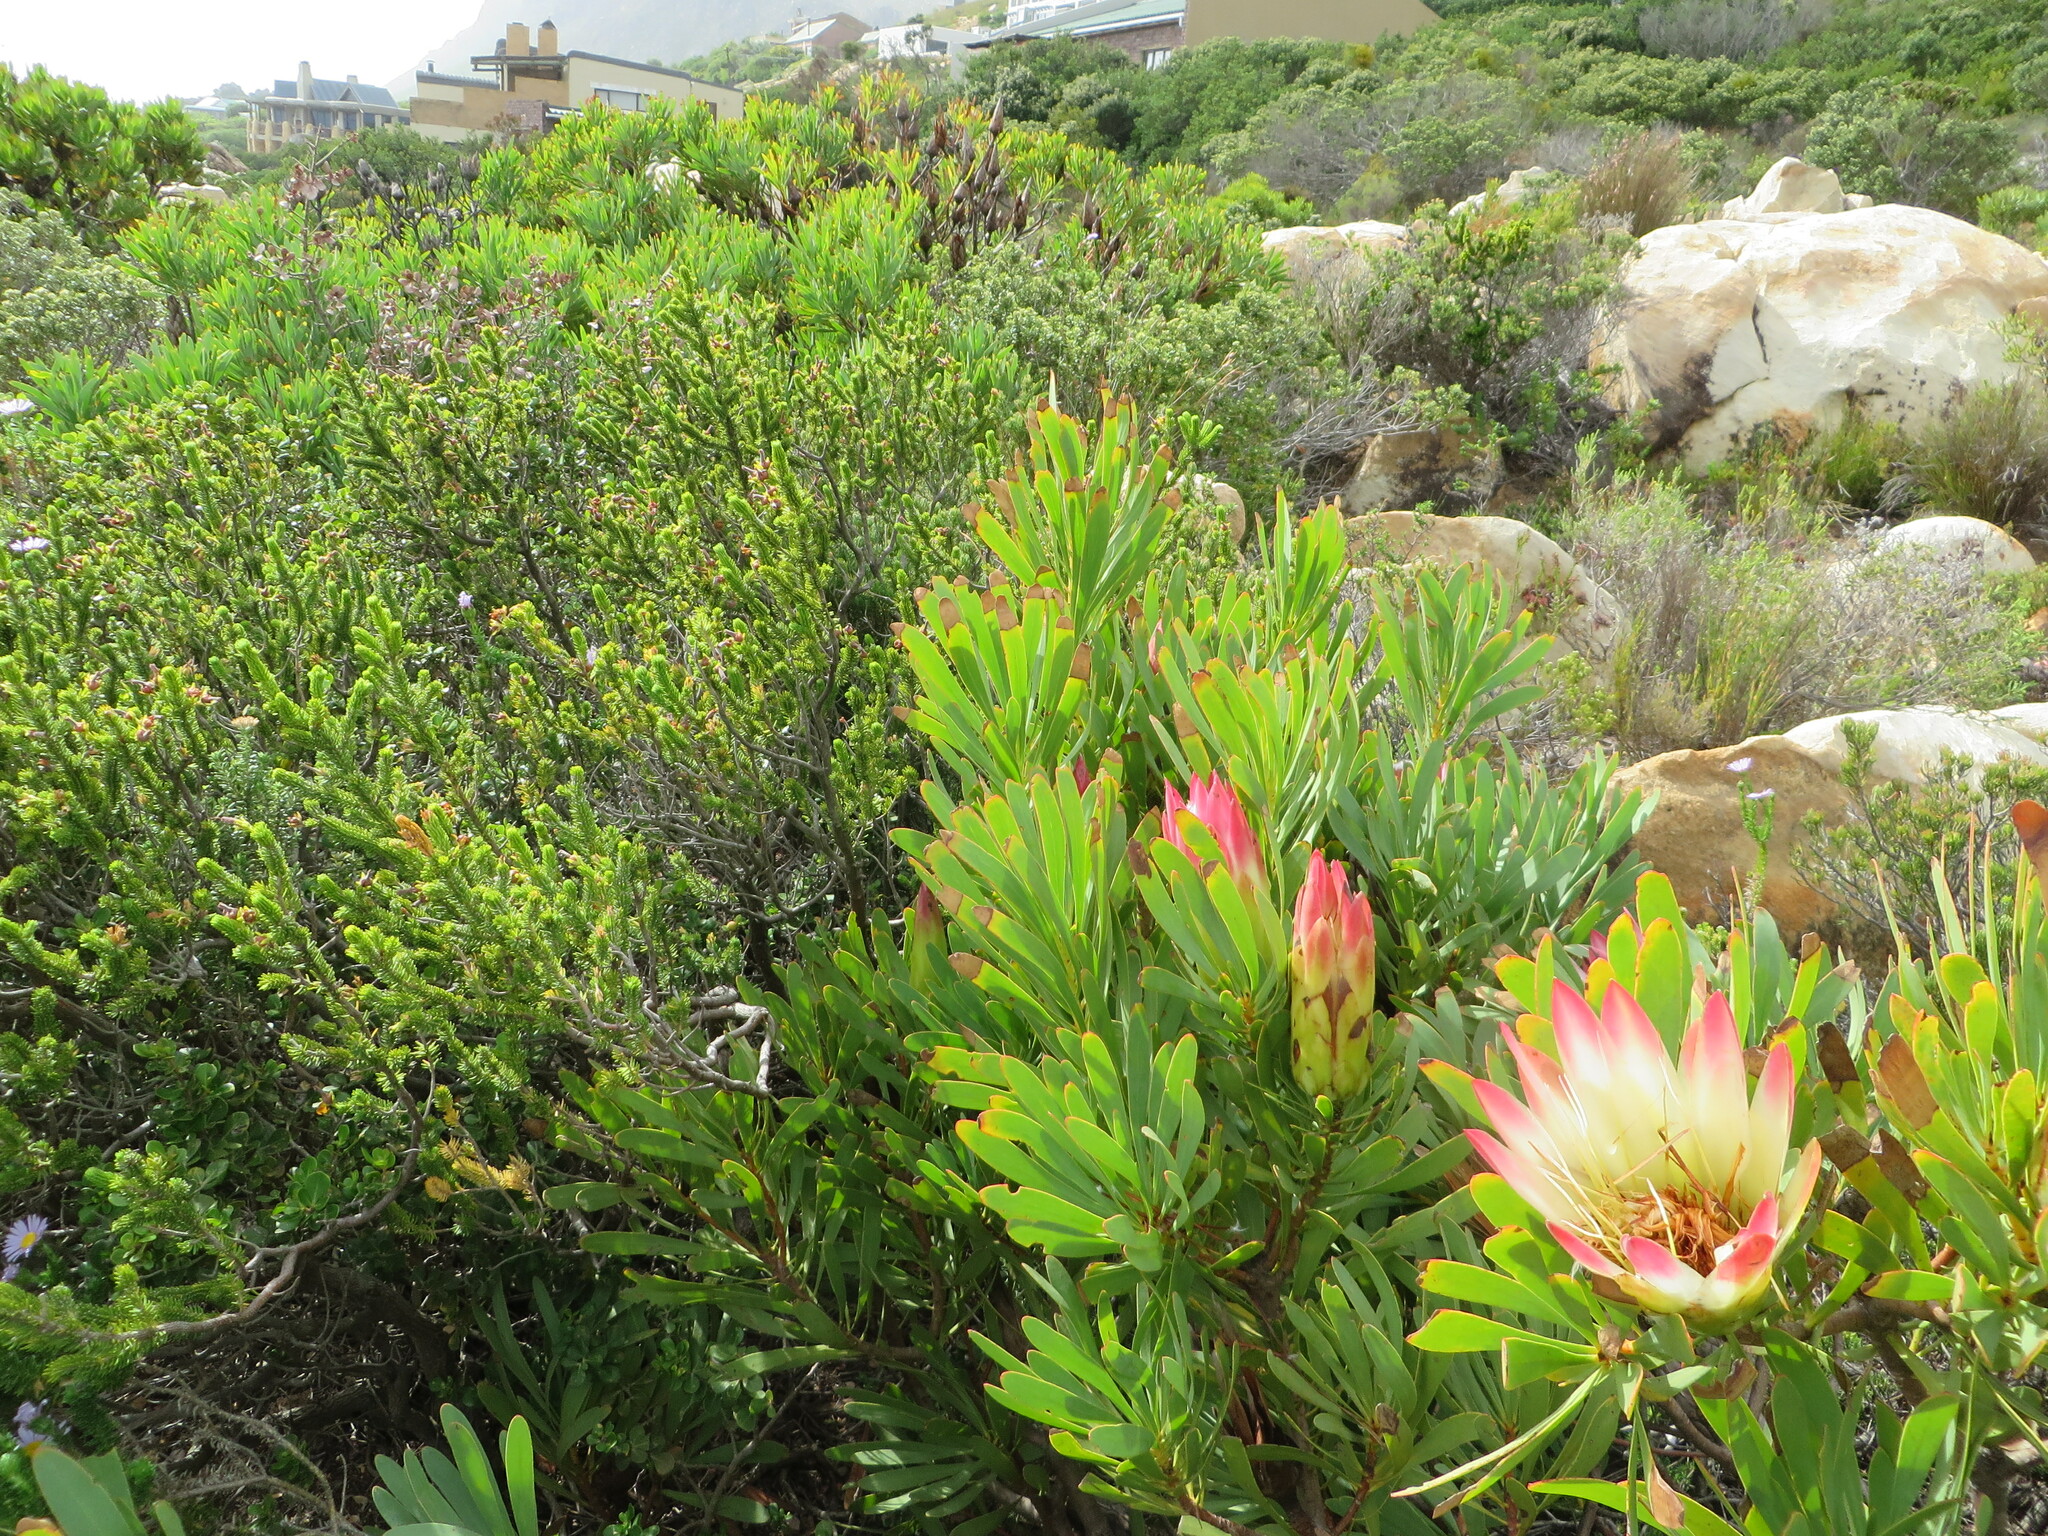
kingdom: Plantae
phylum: Tracheophyta
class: Magnoliopsida
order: Proteales
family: Proteaceae
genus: Protea
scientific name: Protea repens
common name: Sugarbush
